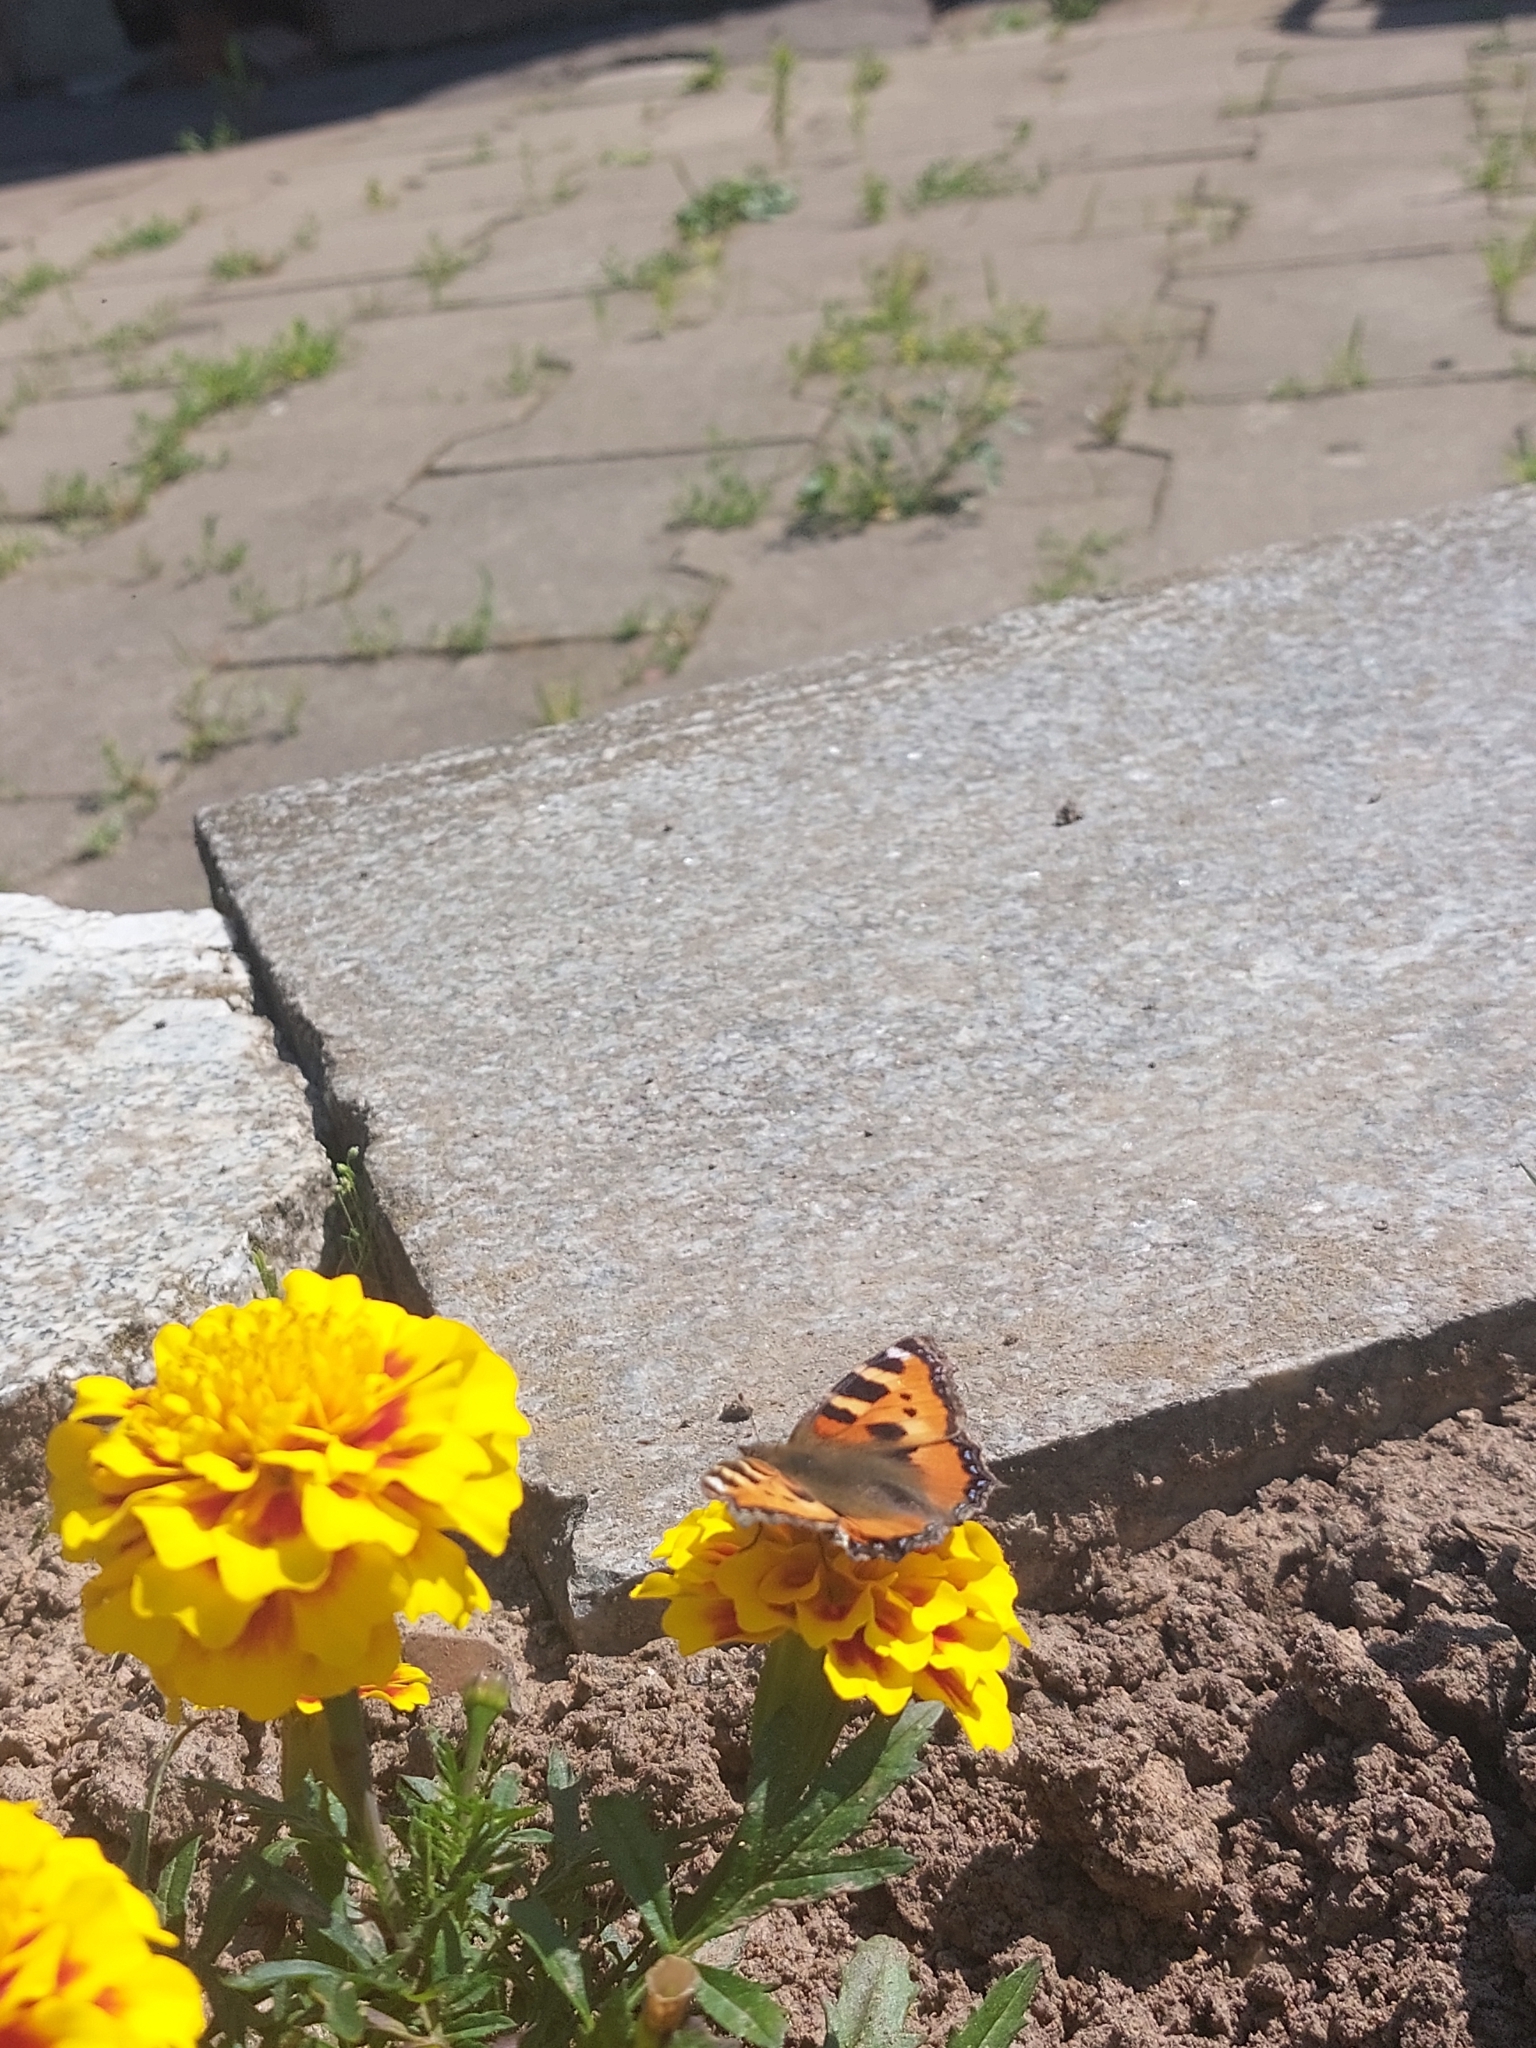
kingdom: Animalia
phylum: Arthropoda
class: Insecta
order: Lepidoptera
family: Nymphalidae
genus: Aglais
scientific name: Aglais urticae
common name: Small tortoiseshell
